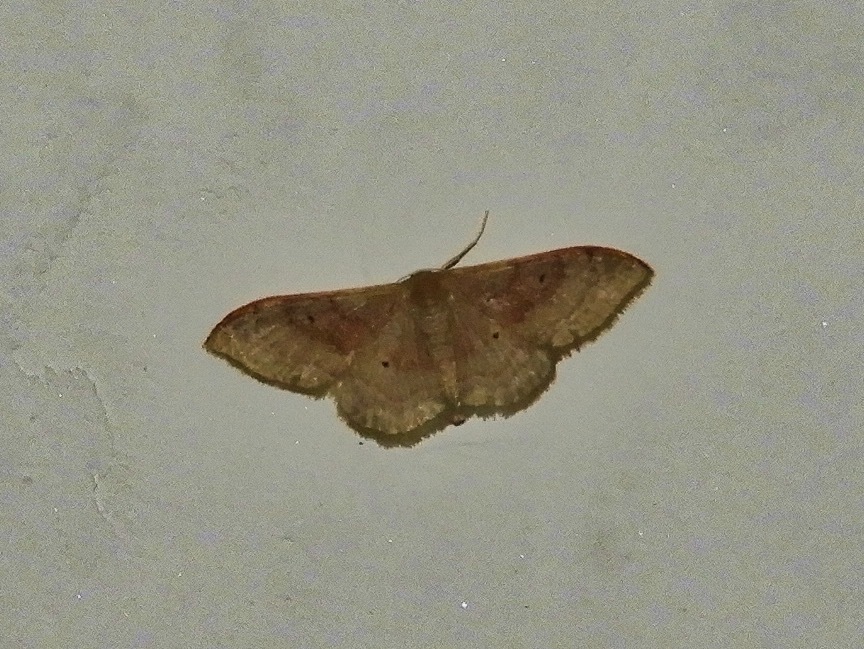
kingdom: Animalia
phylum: Arthropoda
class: Insecta
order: Lepidoptera
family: Geometridae
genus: Idaea
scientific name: Idaea degeneraria
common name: Portland ribbon wave
